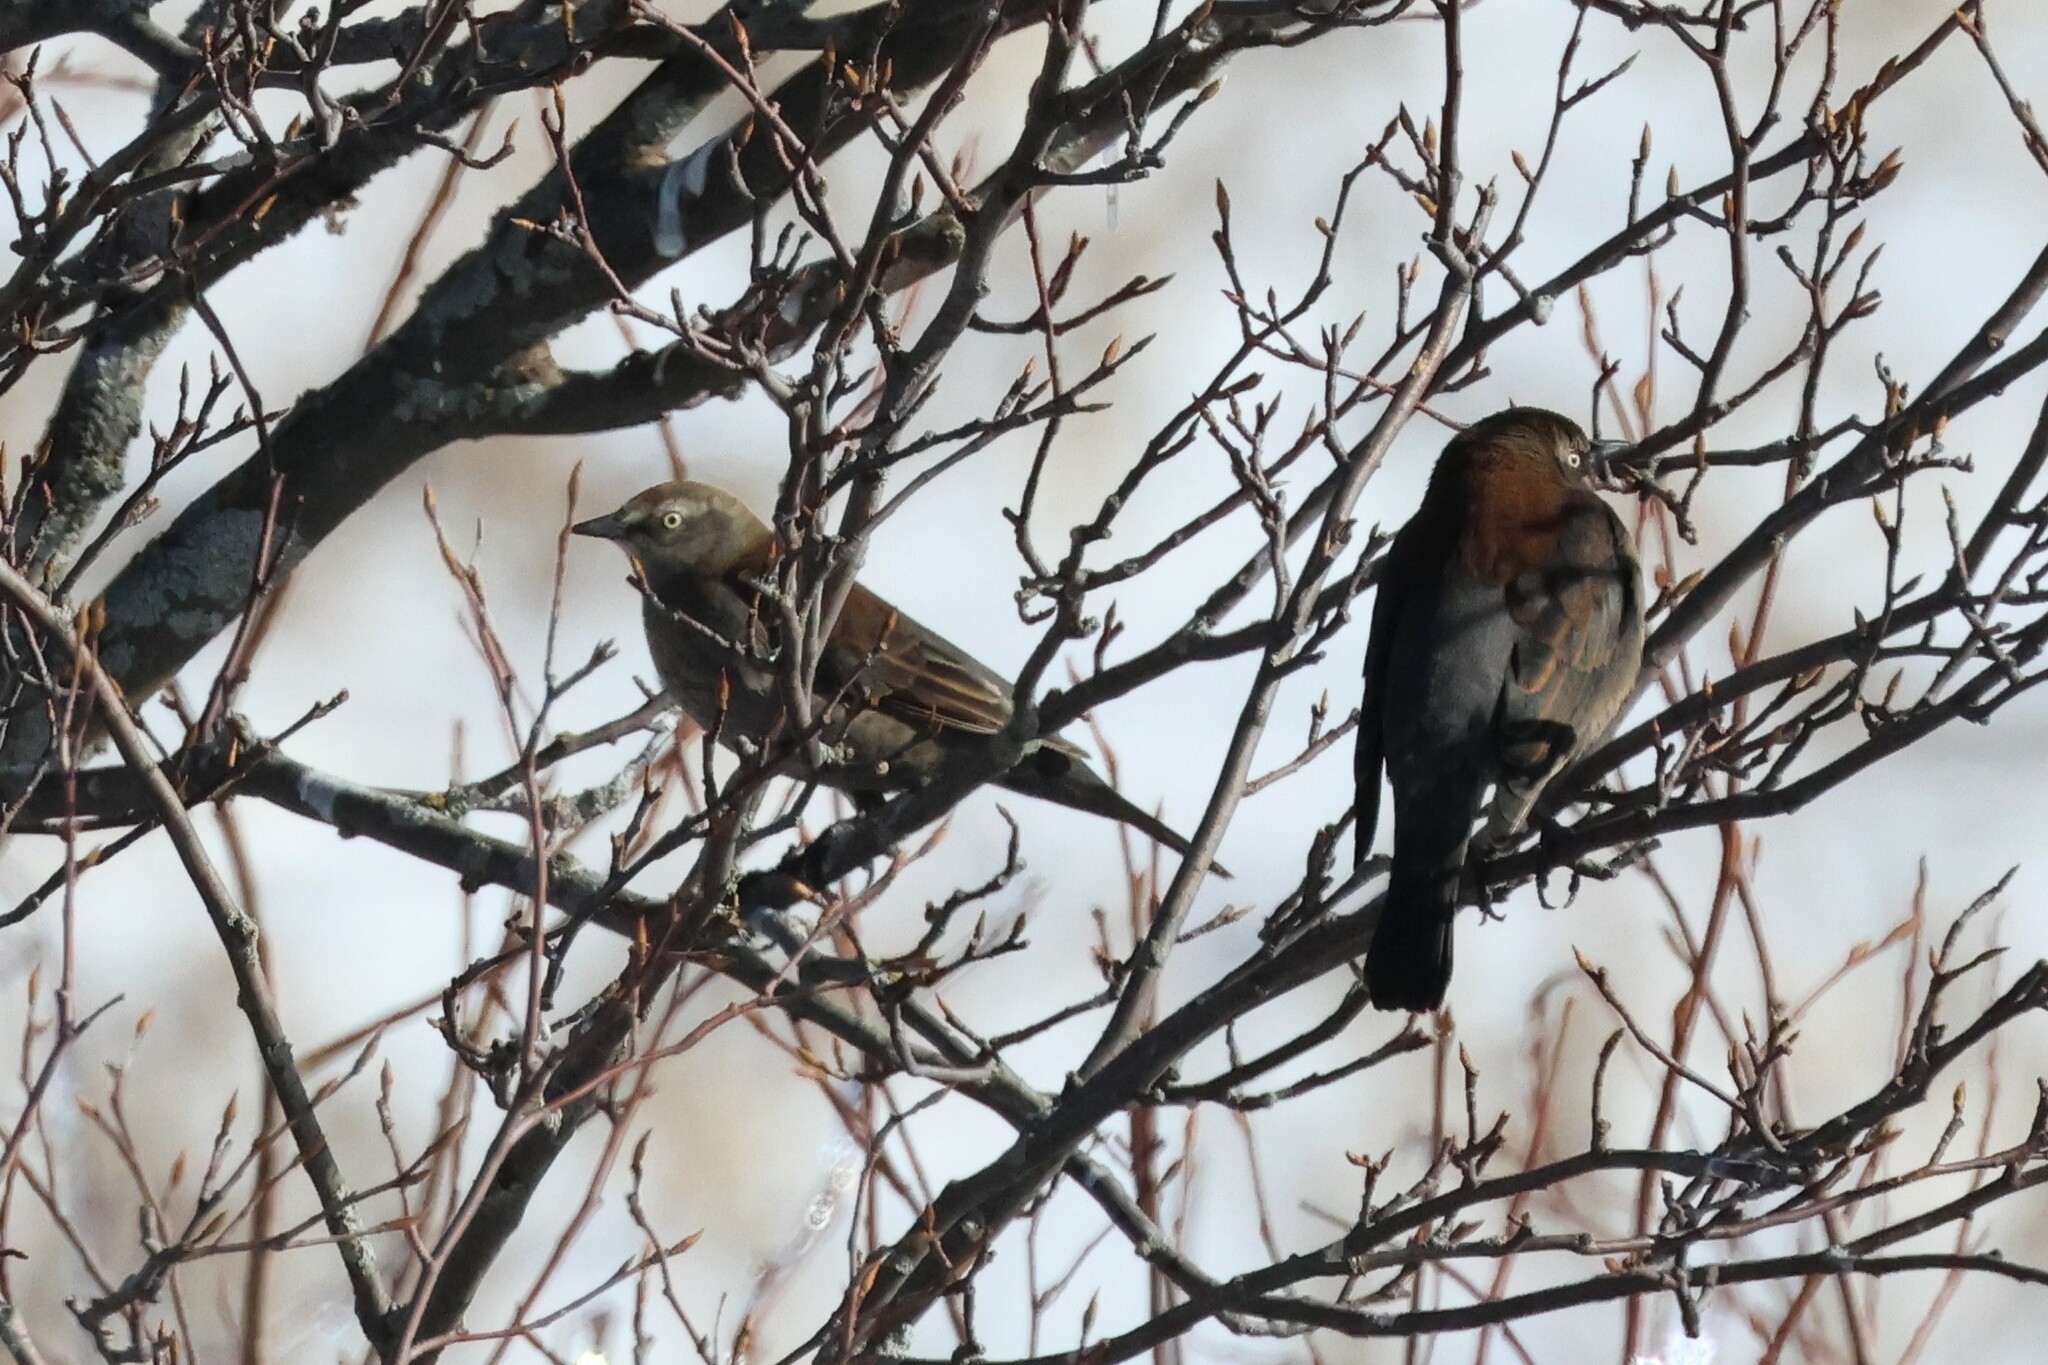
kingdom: Animalia
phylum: Chordata
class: Aves
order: Passeriformes
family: Icteridae
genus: Euphagus
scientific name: Euphagus carolinus
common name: Rusty blackbird
